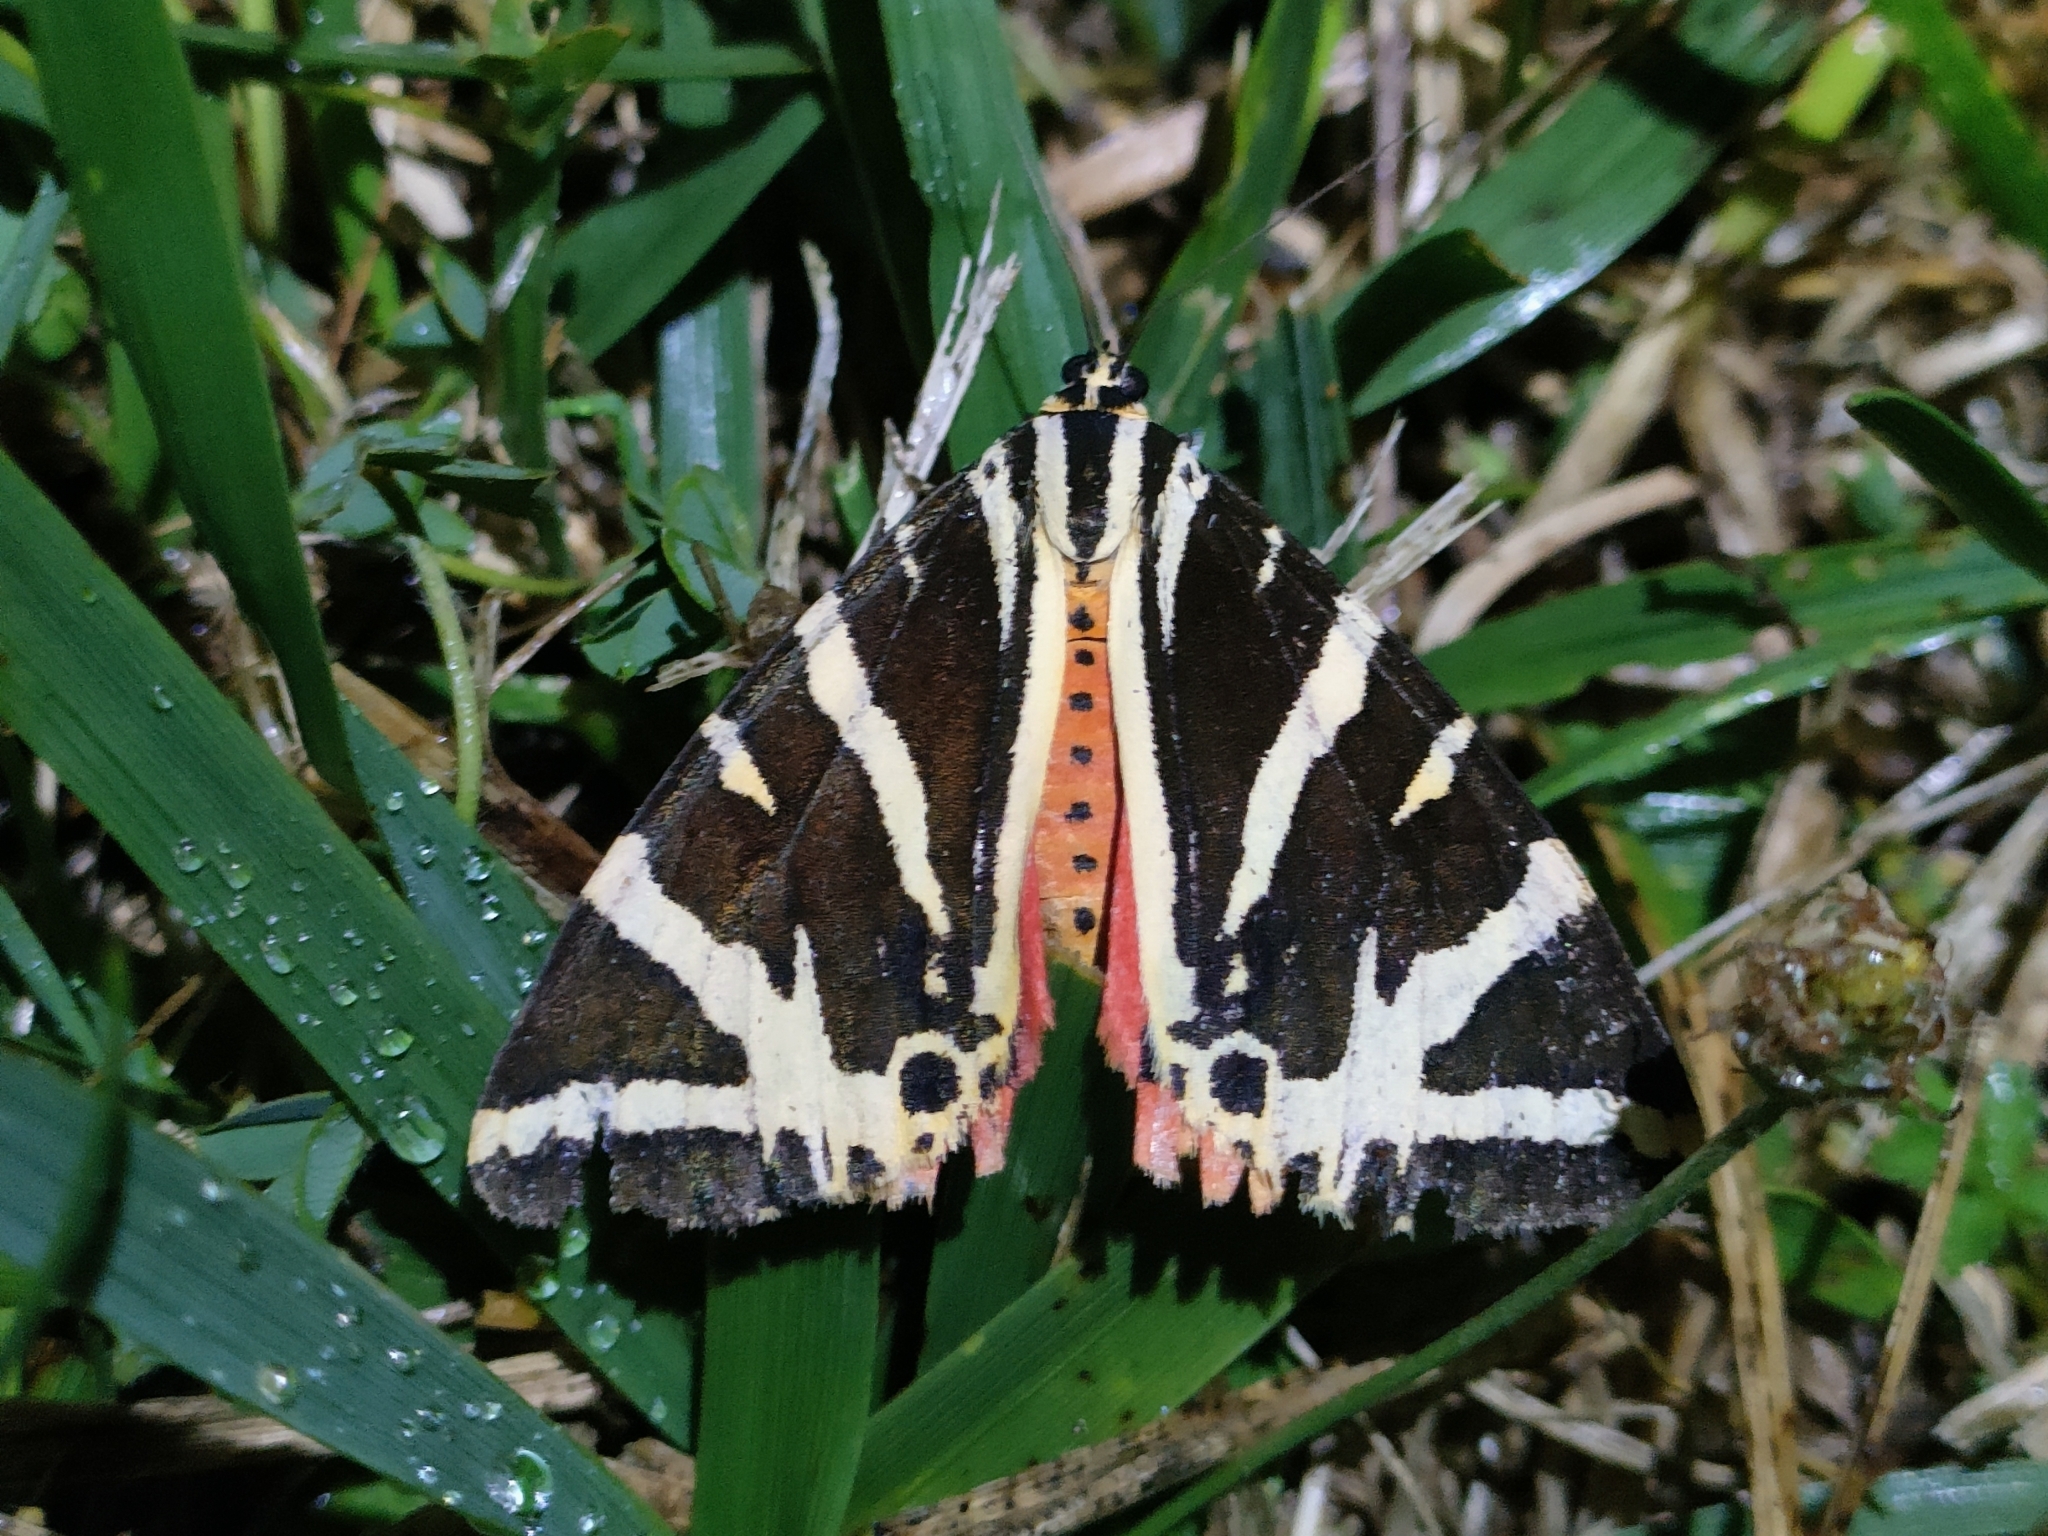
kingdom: Animalia
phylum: Arthropoda
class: Insecta
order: Lepidoptera
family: Erebidae
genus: Euplagia
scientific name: Euplagia quadripunctaria
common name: Jersey tiger
